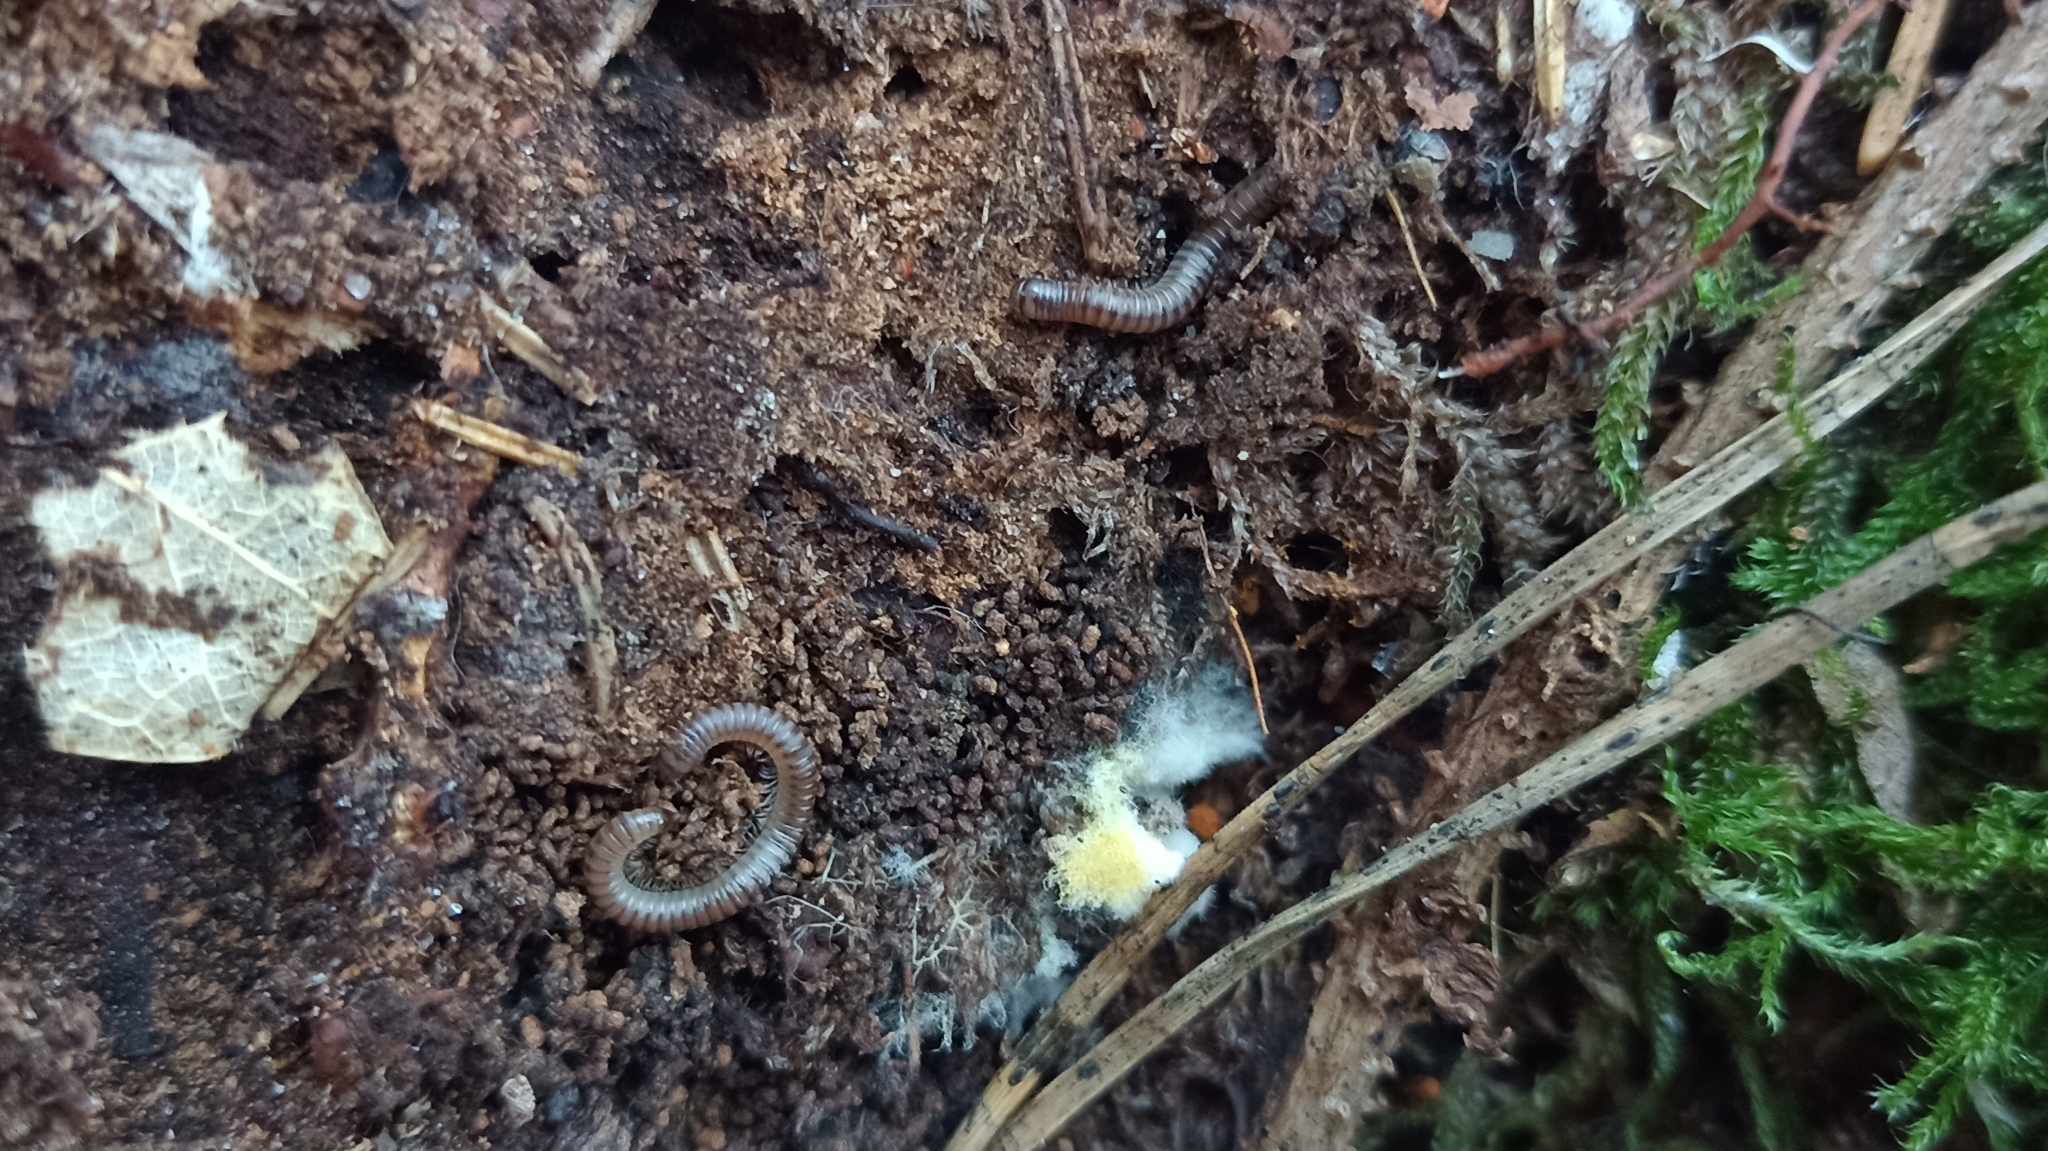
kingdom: Animalia
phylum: Arthropoda
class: Diplopoda
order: Julida
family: Julidae
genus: Cylindroiulus
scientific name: Cylindroiulus punctatus
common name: Blunt-tailed millipede
